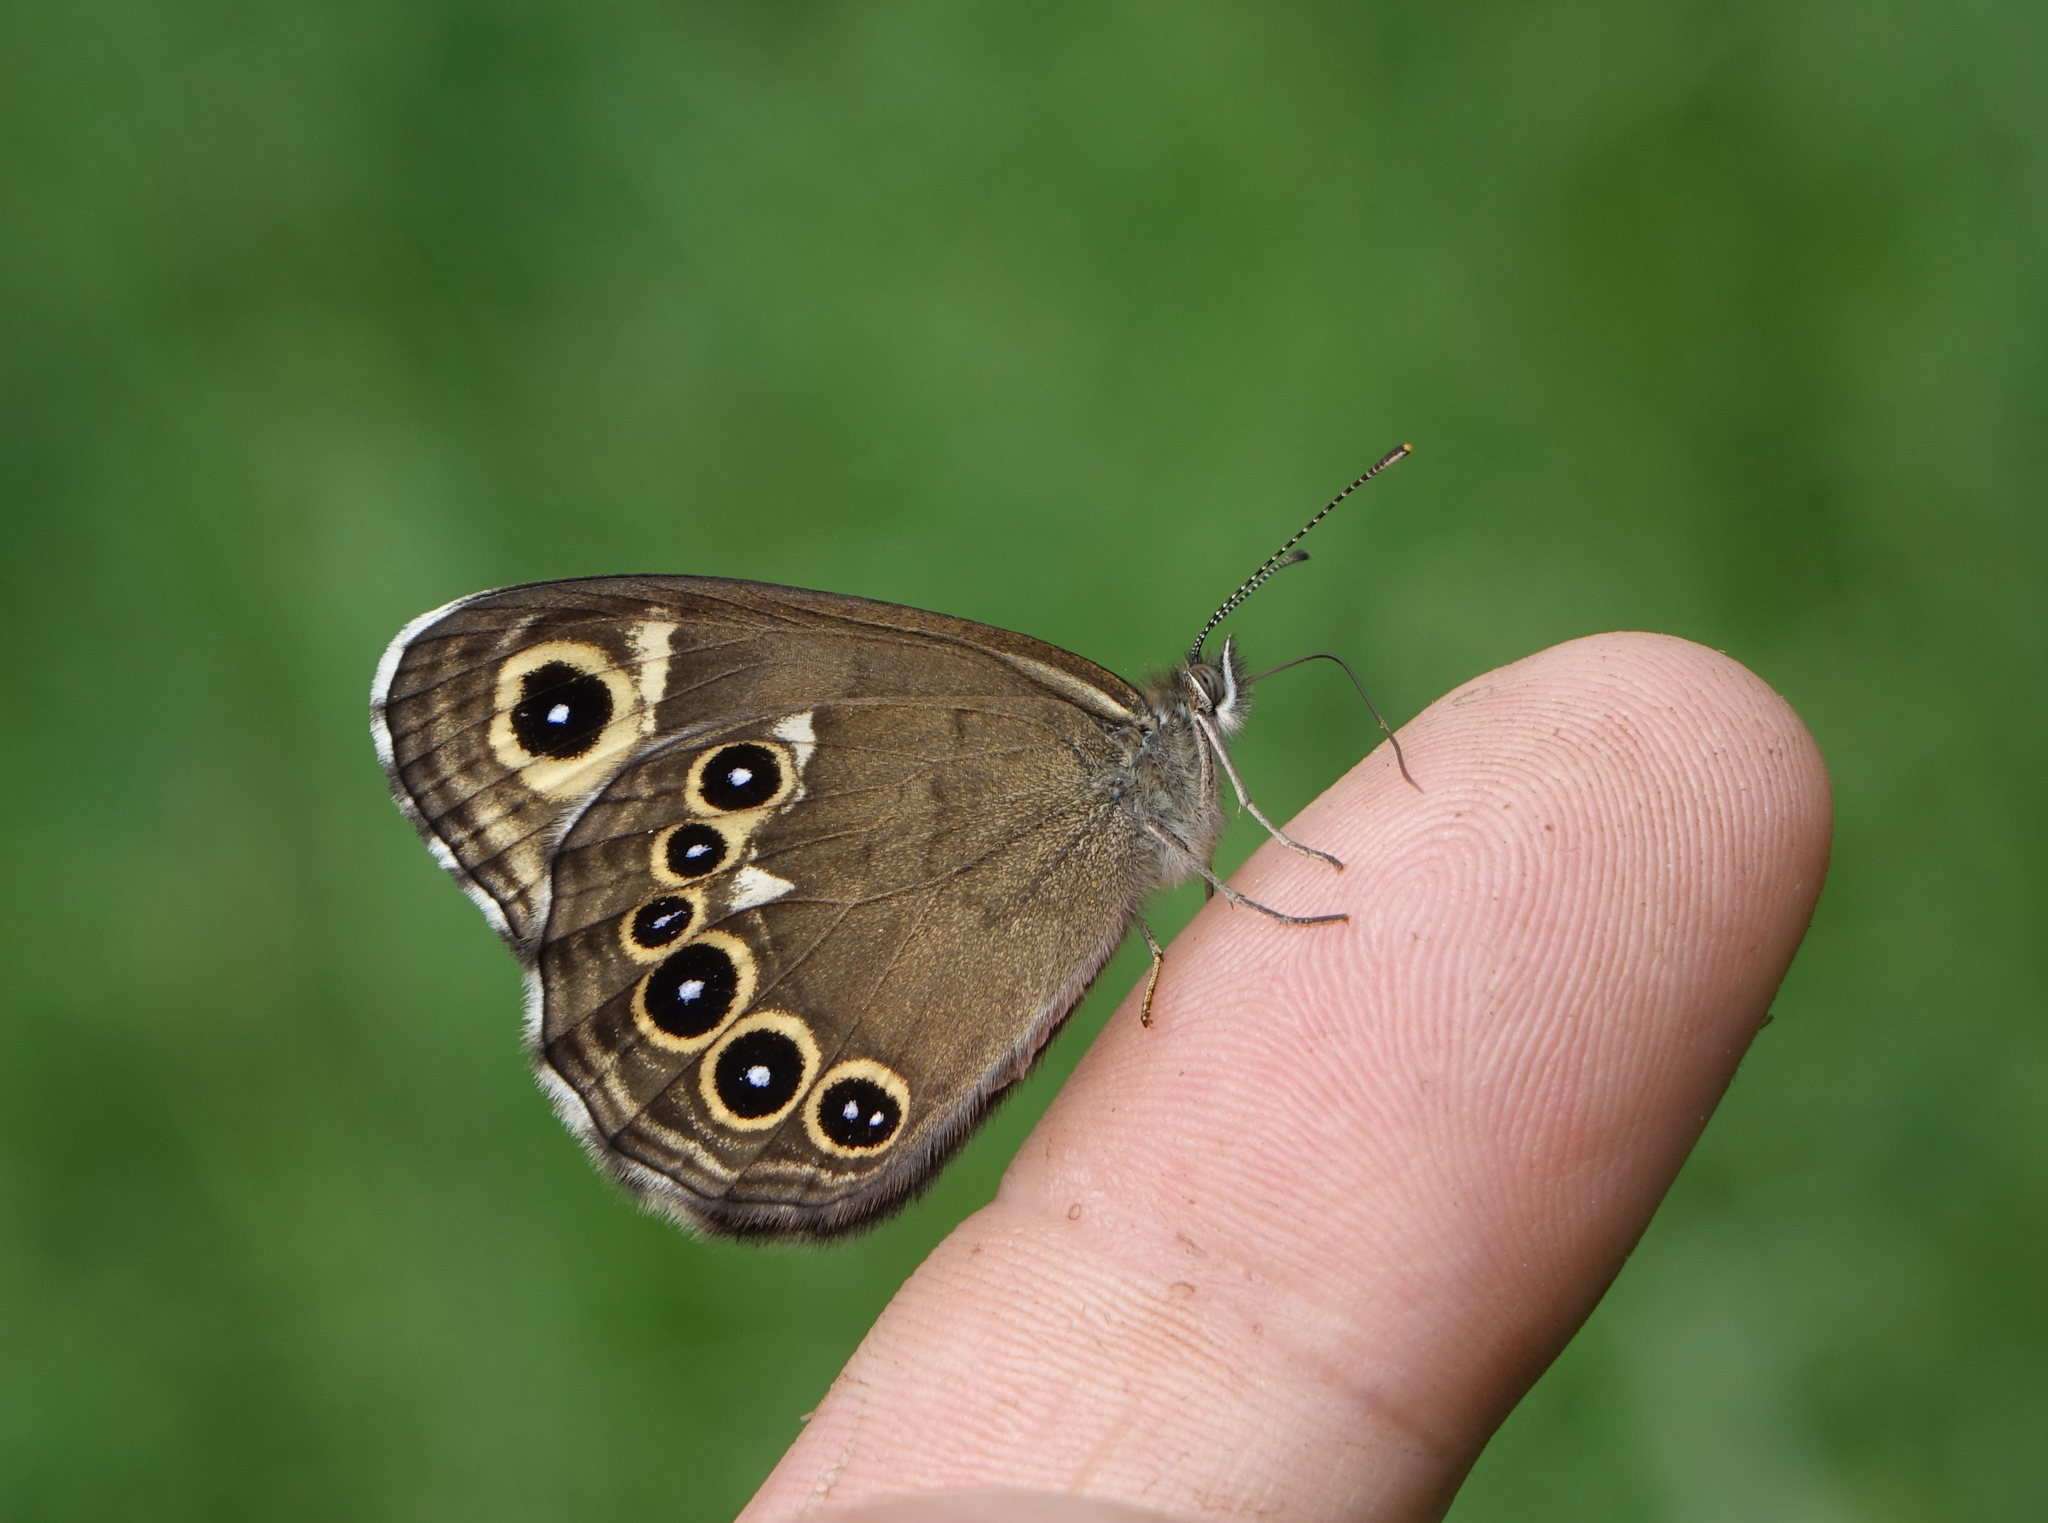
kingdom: Animalia
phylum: Arthropoda
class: Insecta
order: Lepidoptera
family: Nymphalidae
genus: Pararge
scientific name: Pararge Lasiommata deidamia
